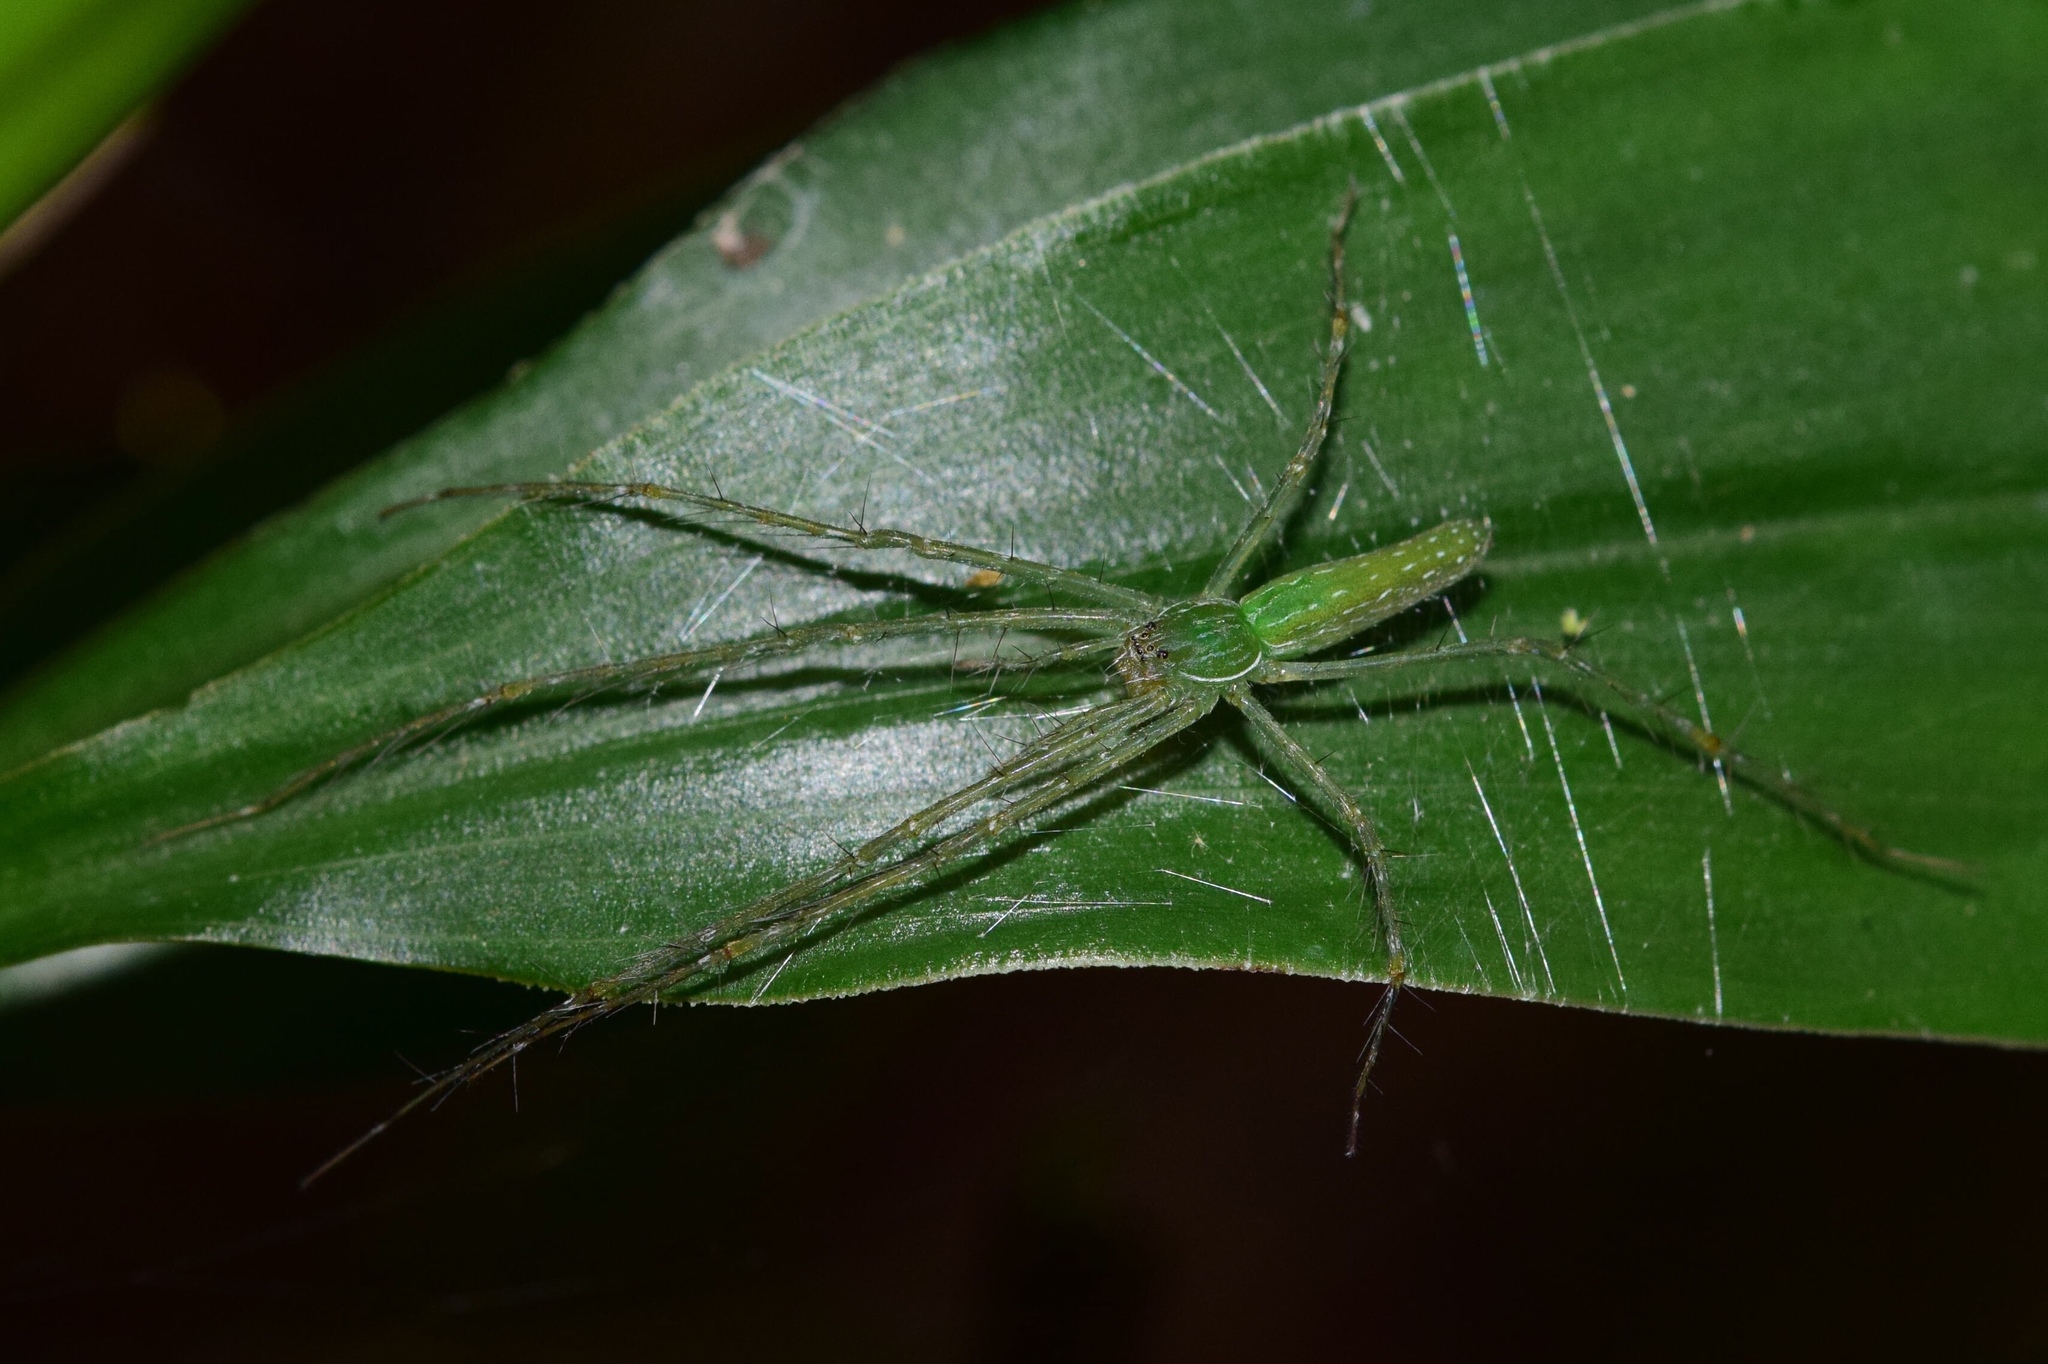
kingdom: Animalia
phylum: Arthropoda
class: Arachnida
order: Araneae
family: Pisauridae
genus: Hygropoda
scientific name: Hygropoda tangana
